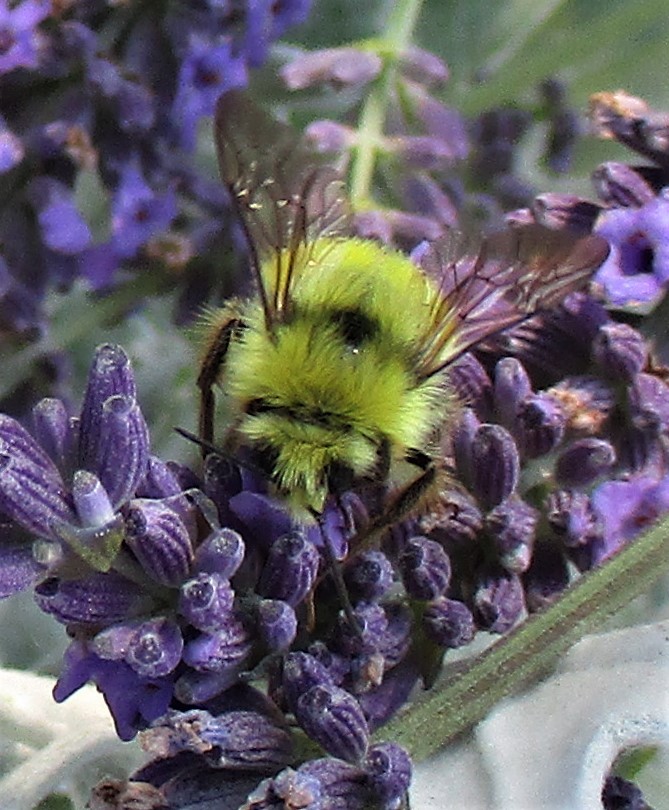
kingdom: Animalia
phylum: Arthropoda
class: Insecta
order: Hymenoptera
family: Apidae
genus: Bombus
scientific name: Bombus flavifrons
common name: Yellow head bumble bee
